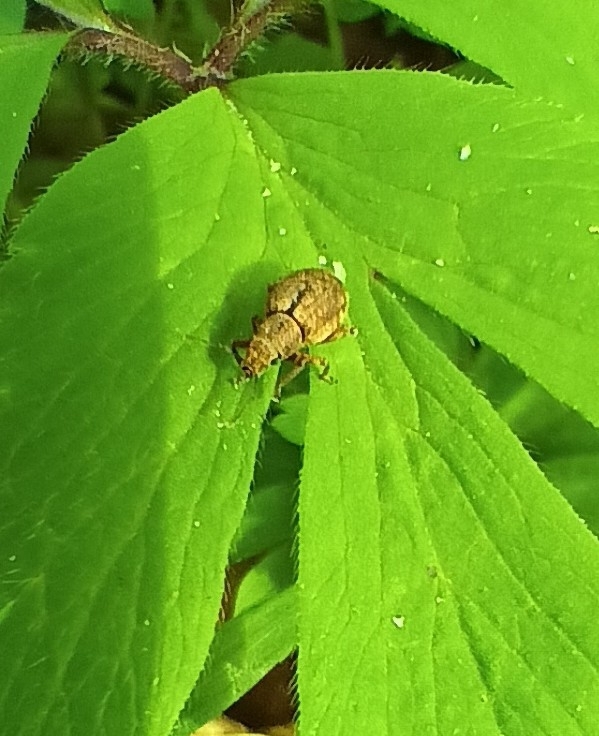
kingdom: Animalia
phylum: Arthropoda
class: Insecta
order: Coleoptera
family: Curculionidae
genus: Strophosoma
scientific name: Strophosoma melanogrammum
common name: Weevil
